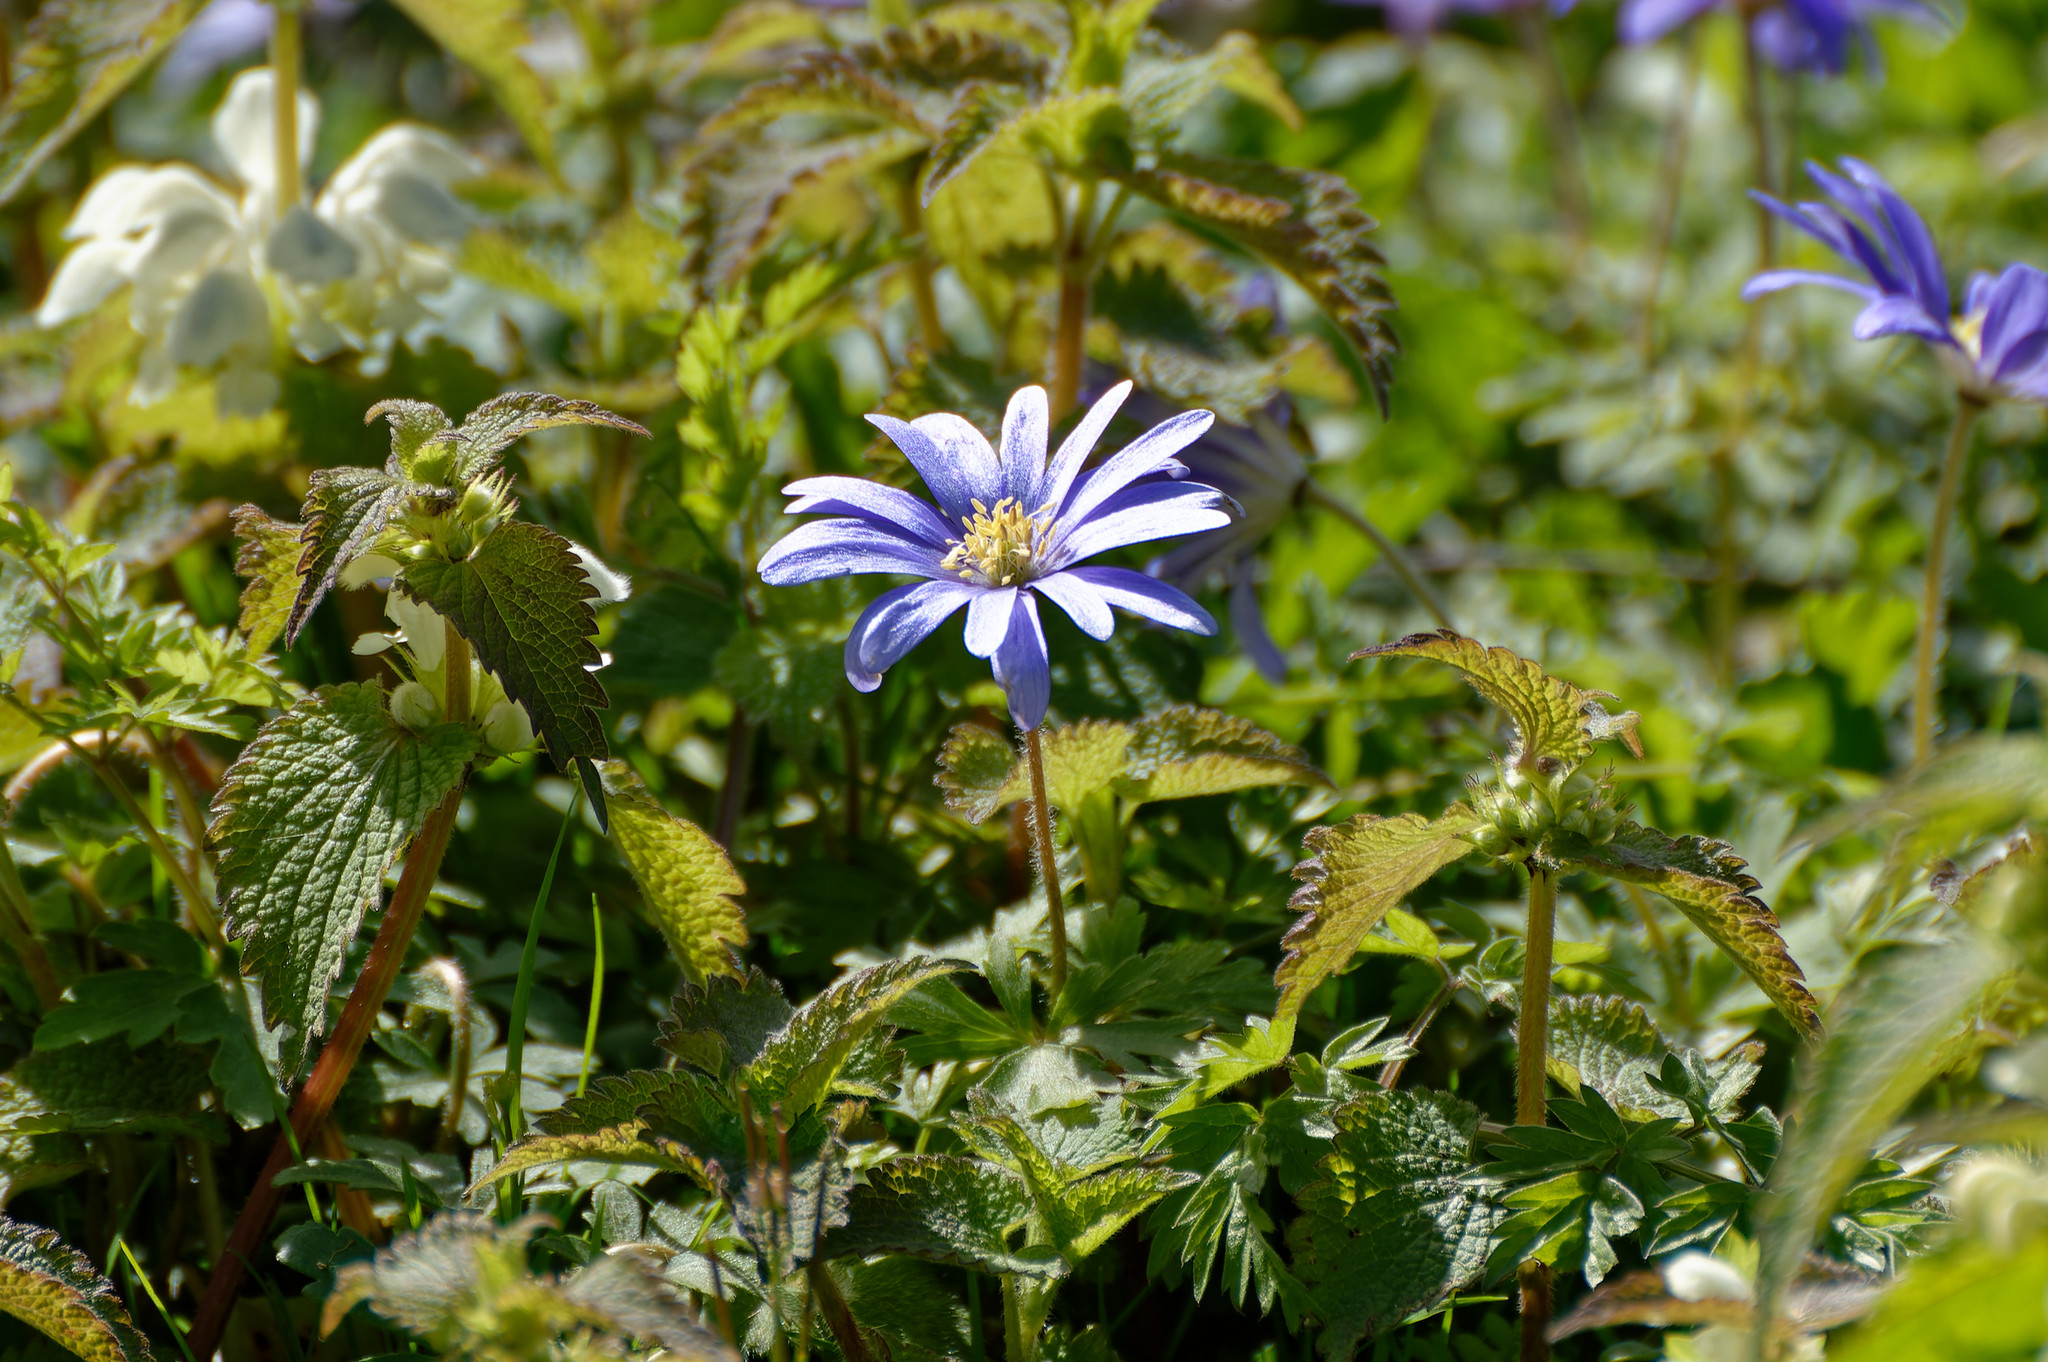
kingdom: Plantae
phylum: Tracheophyta
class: Magnoliopsida
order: Ranunculales
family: Ranunculaceae
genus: Anemone
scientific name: Anemone blanda
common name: Balkan anemone
